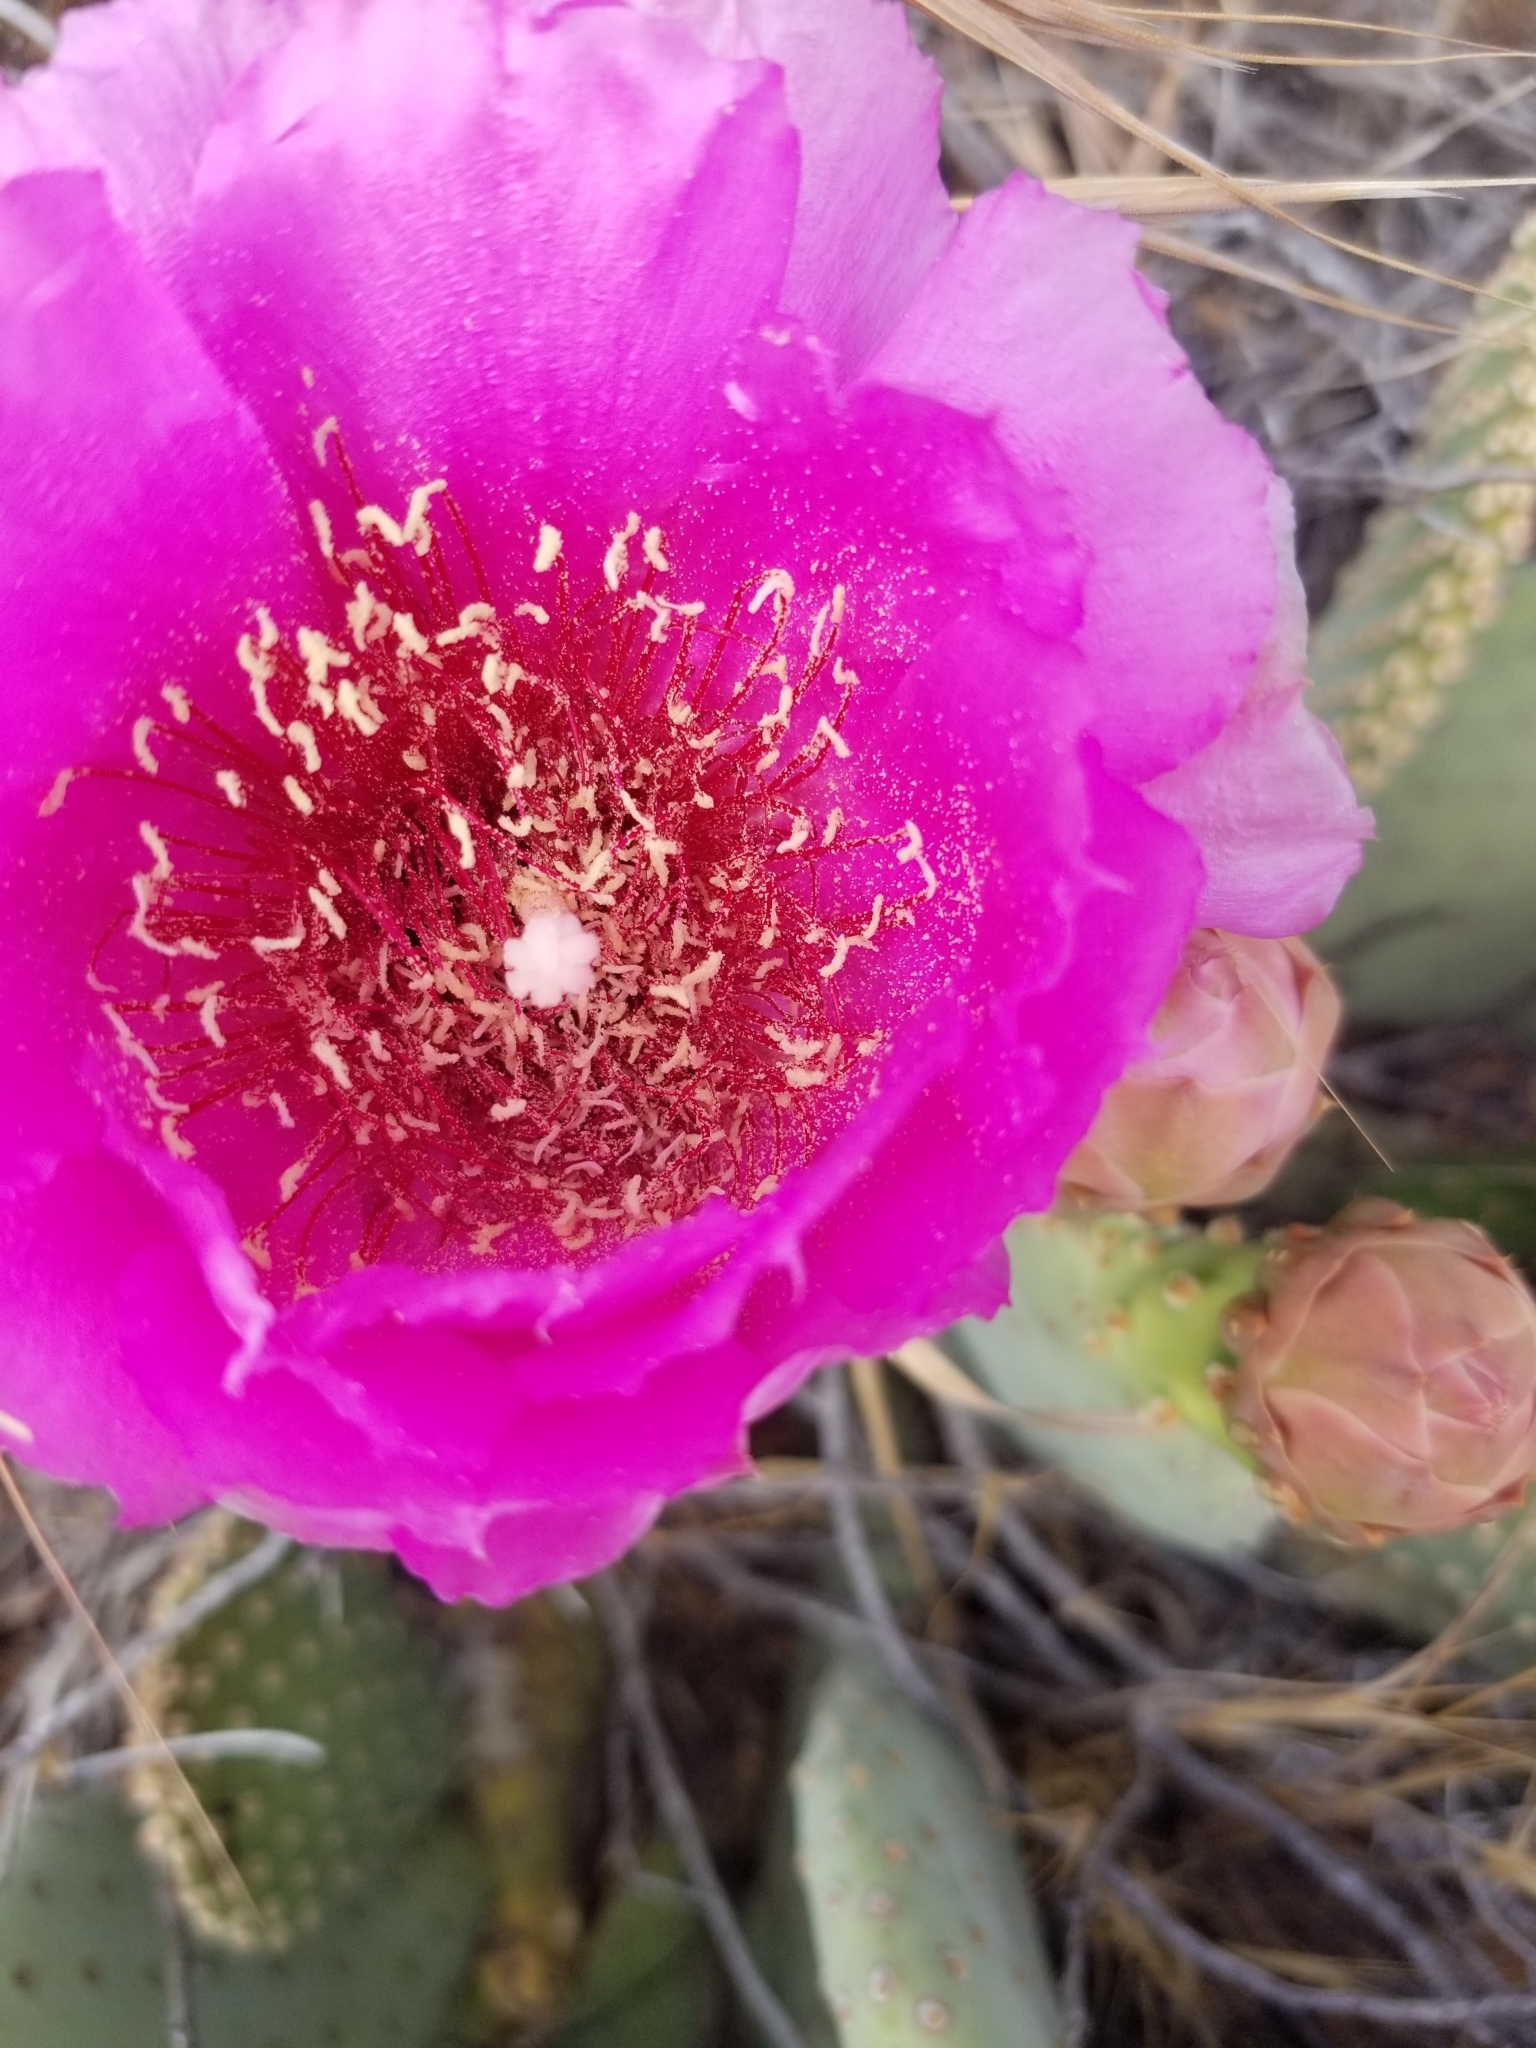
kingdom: Plantae
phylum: Tracheophyta
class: Magnoliopsida
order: Caryophyllales
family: Cactaceae
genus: Opuntia
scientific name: Opuntia basilaris
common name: Beavertail prickly-pear
